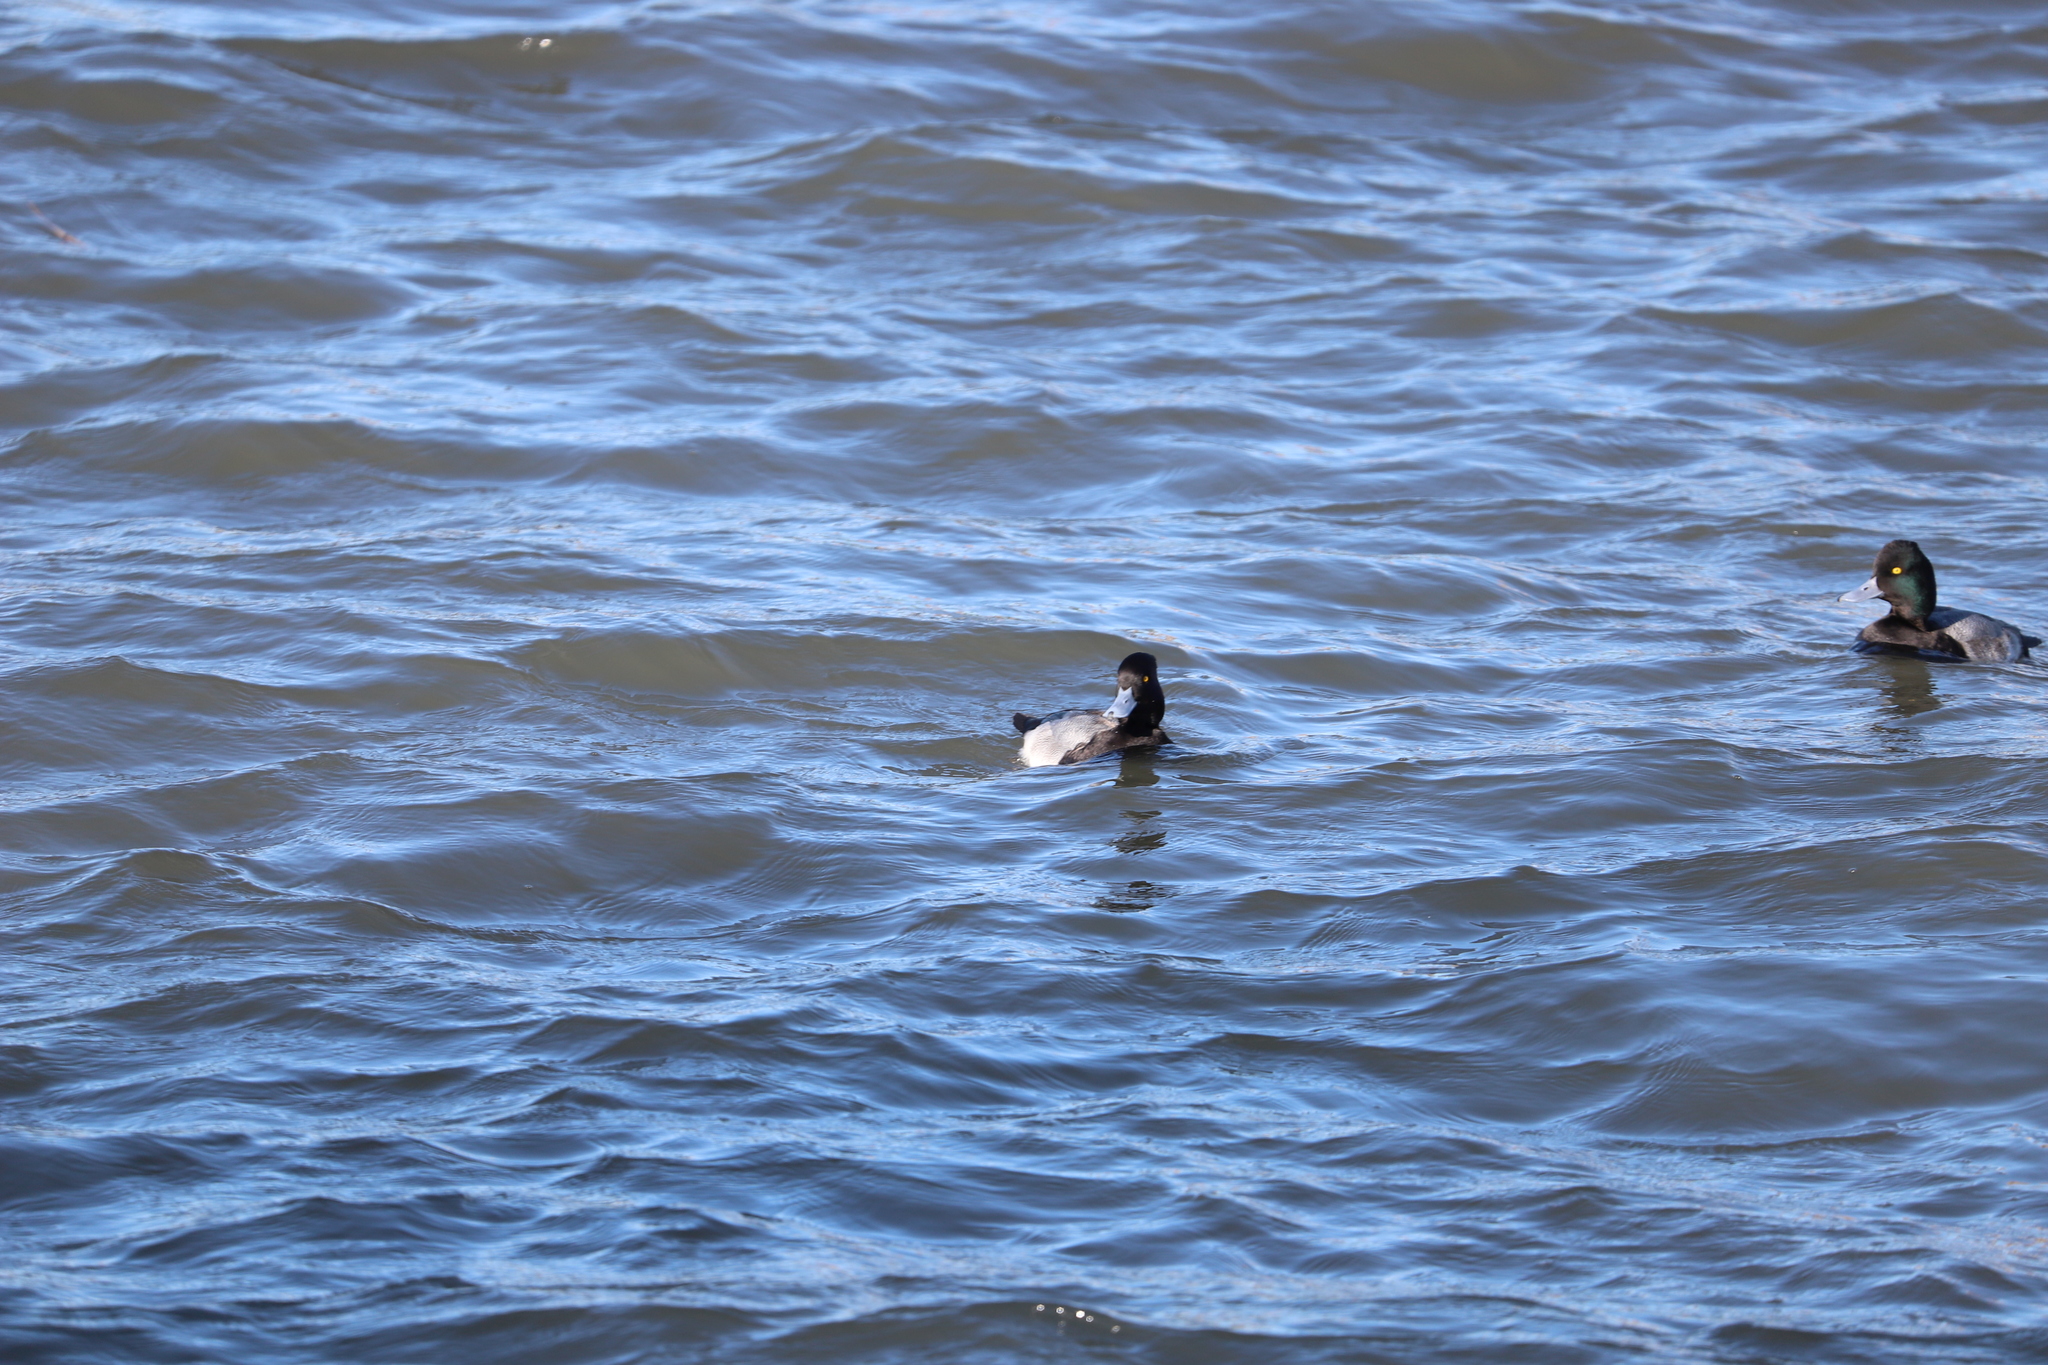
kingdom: Animalia
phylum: Chordata
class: Aves
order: Anseriformes
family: Anatidae
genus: Aythya
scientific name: Aythya affinis
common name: Lesser scaup
